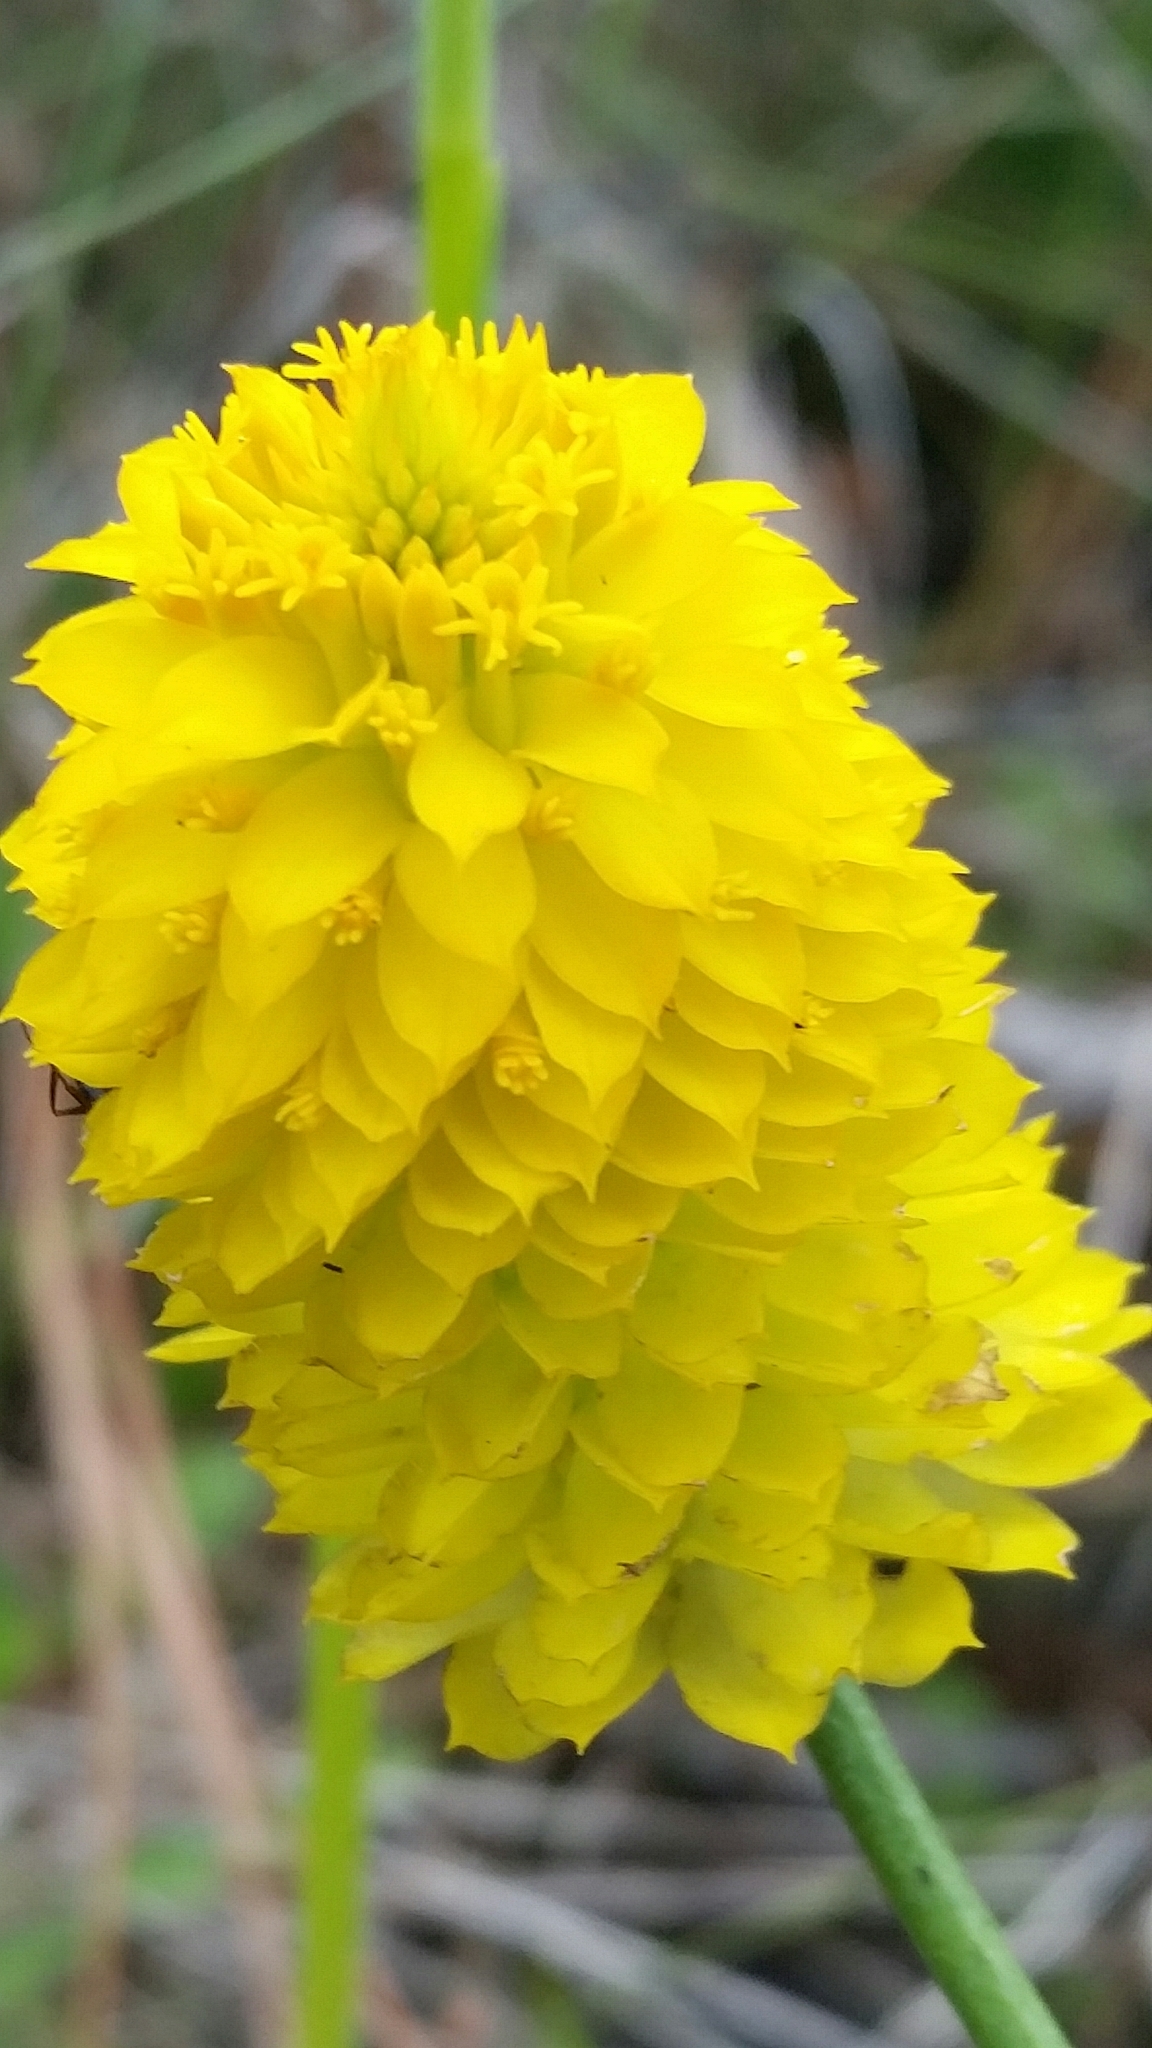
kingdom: Plantae
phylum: Tracheophyta
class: Magnoliopsida
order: Fabales
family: Polygalaceae
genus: Polygala
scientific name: Polygala rugelii
